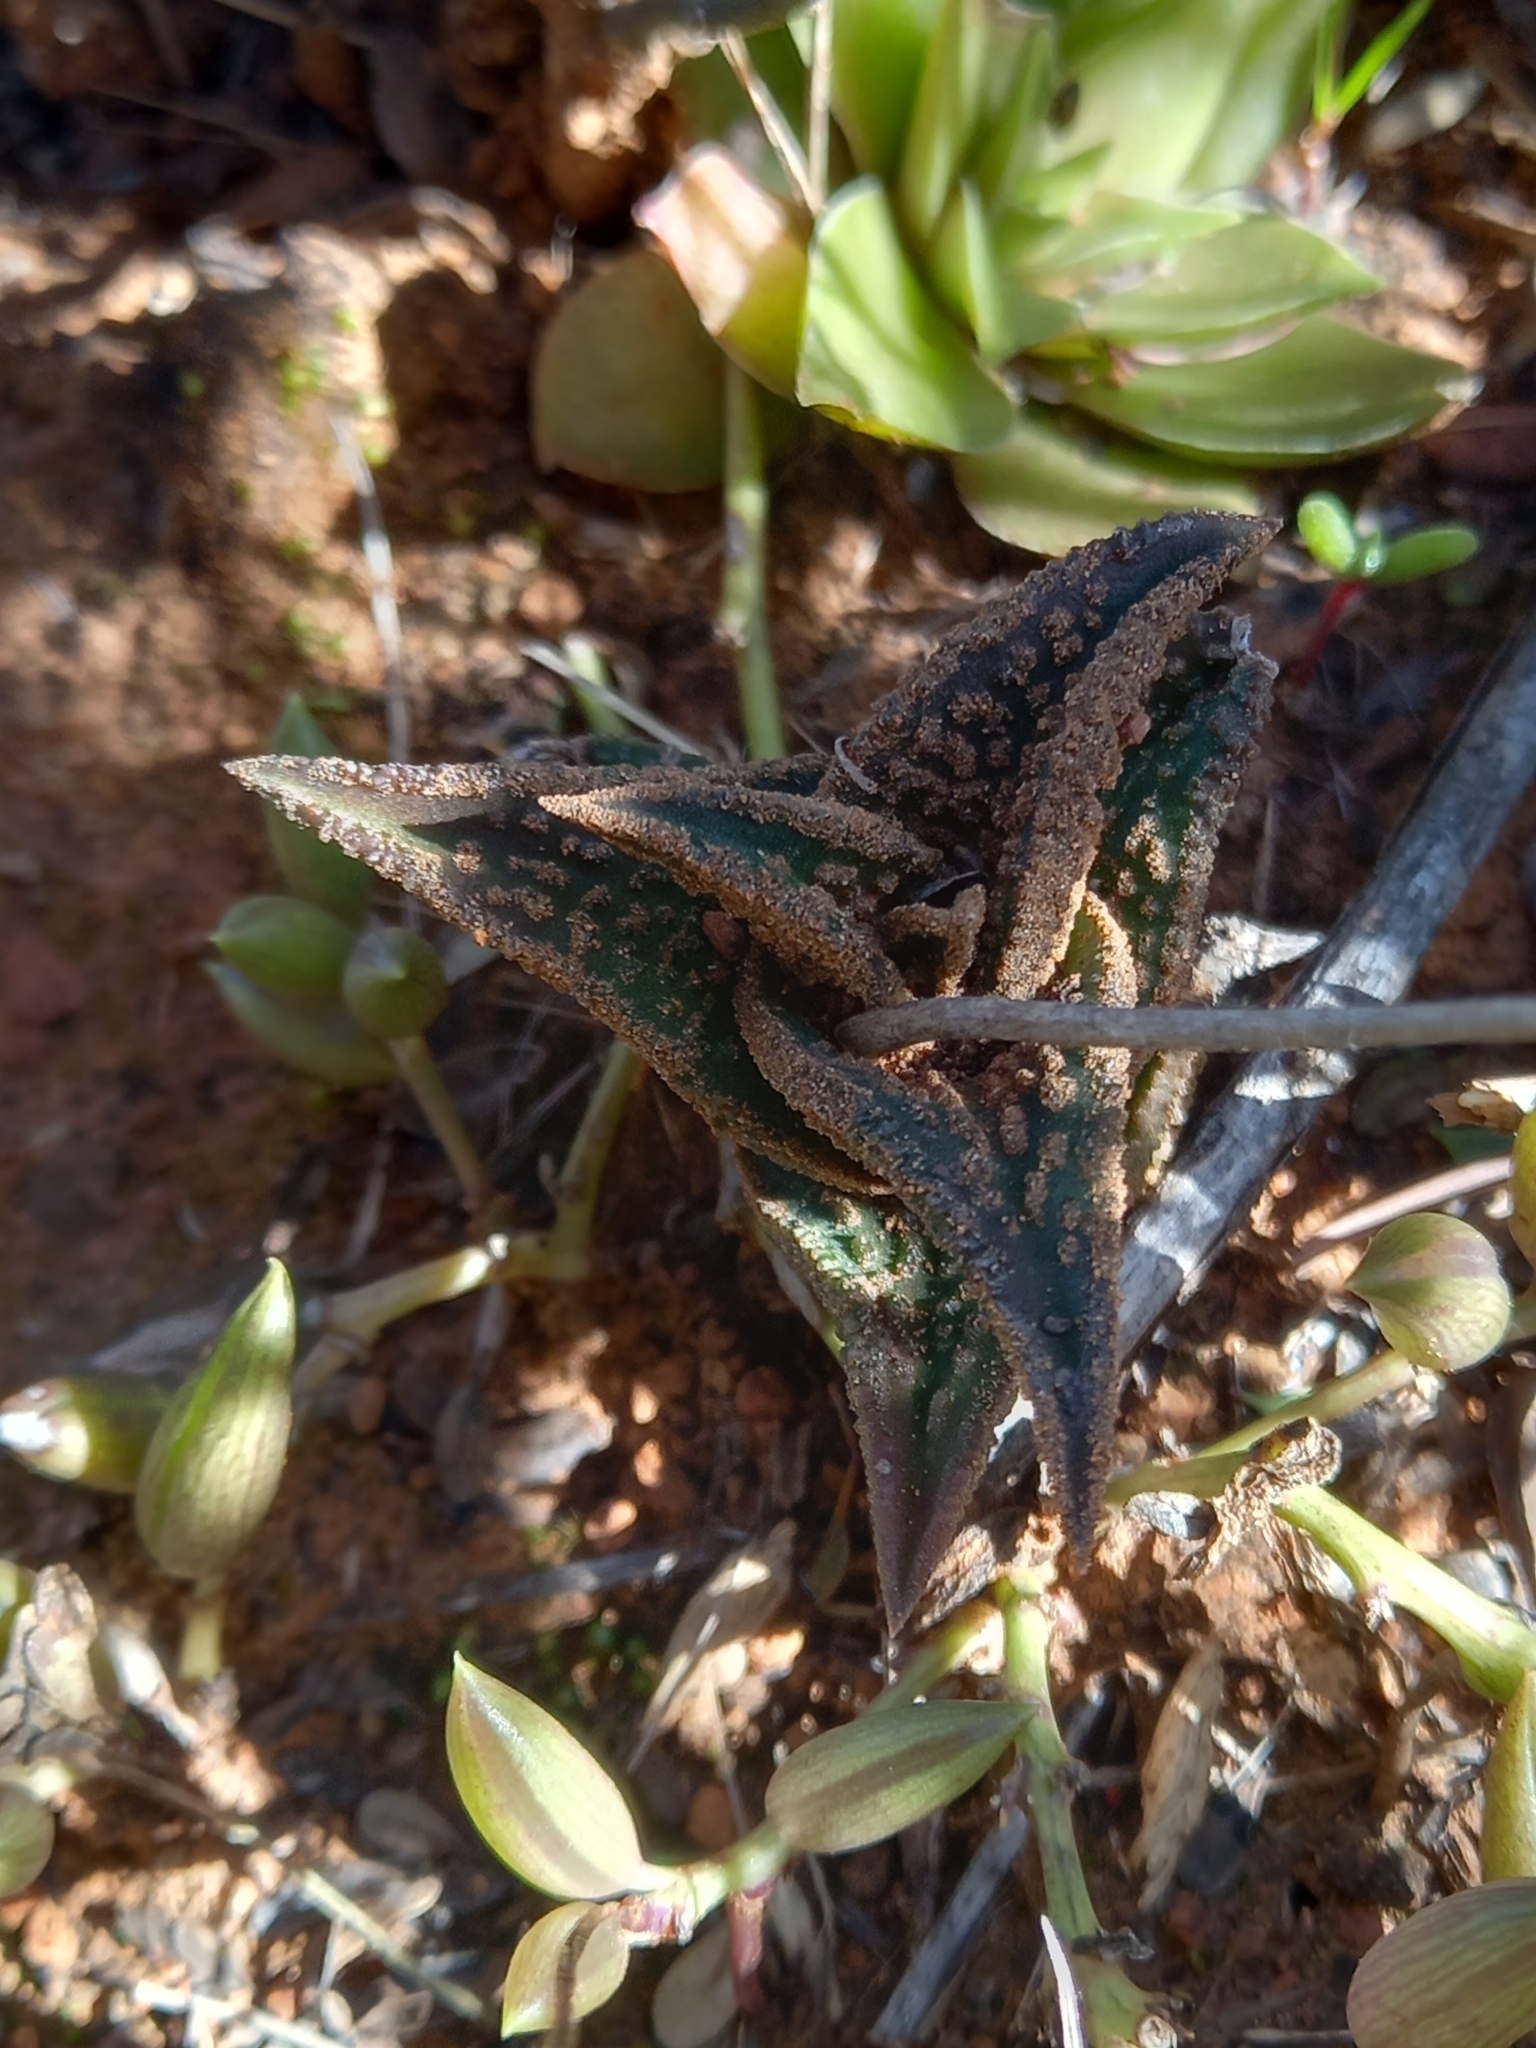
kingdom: Plantae
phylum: Tracheophyta
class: Liliopsida
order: Asparagales
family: Asphodelaceae
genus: Haworthiopsis
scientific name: Haworthiopsis nigra
